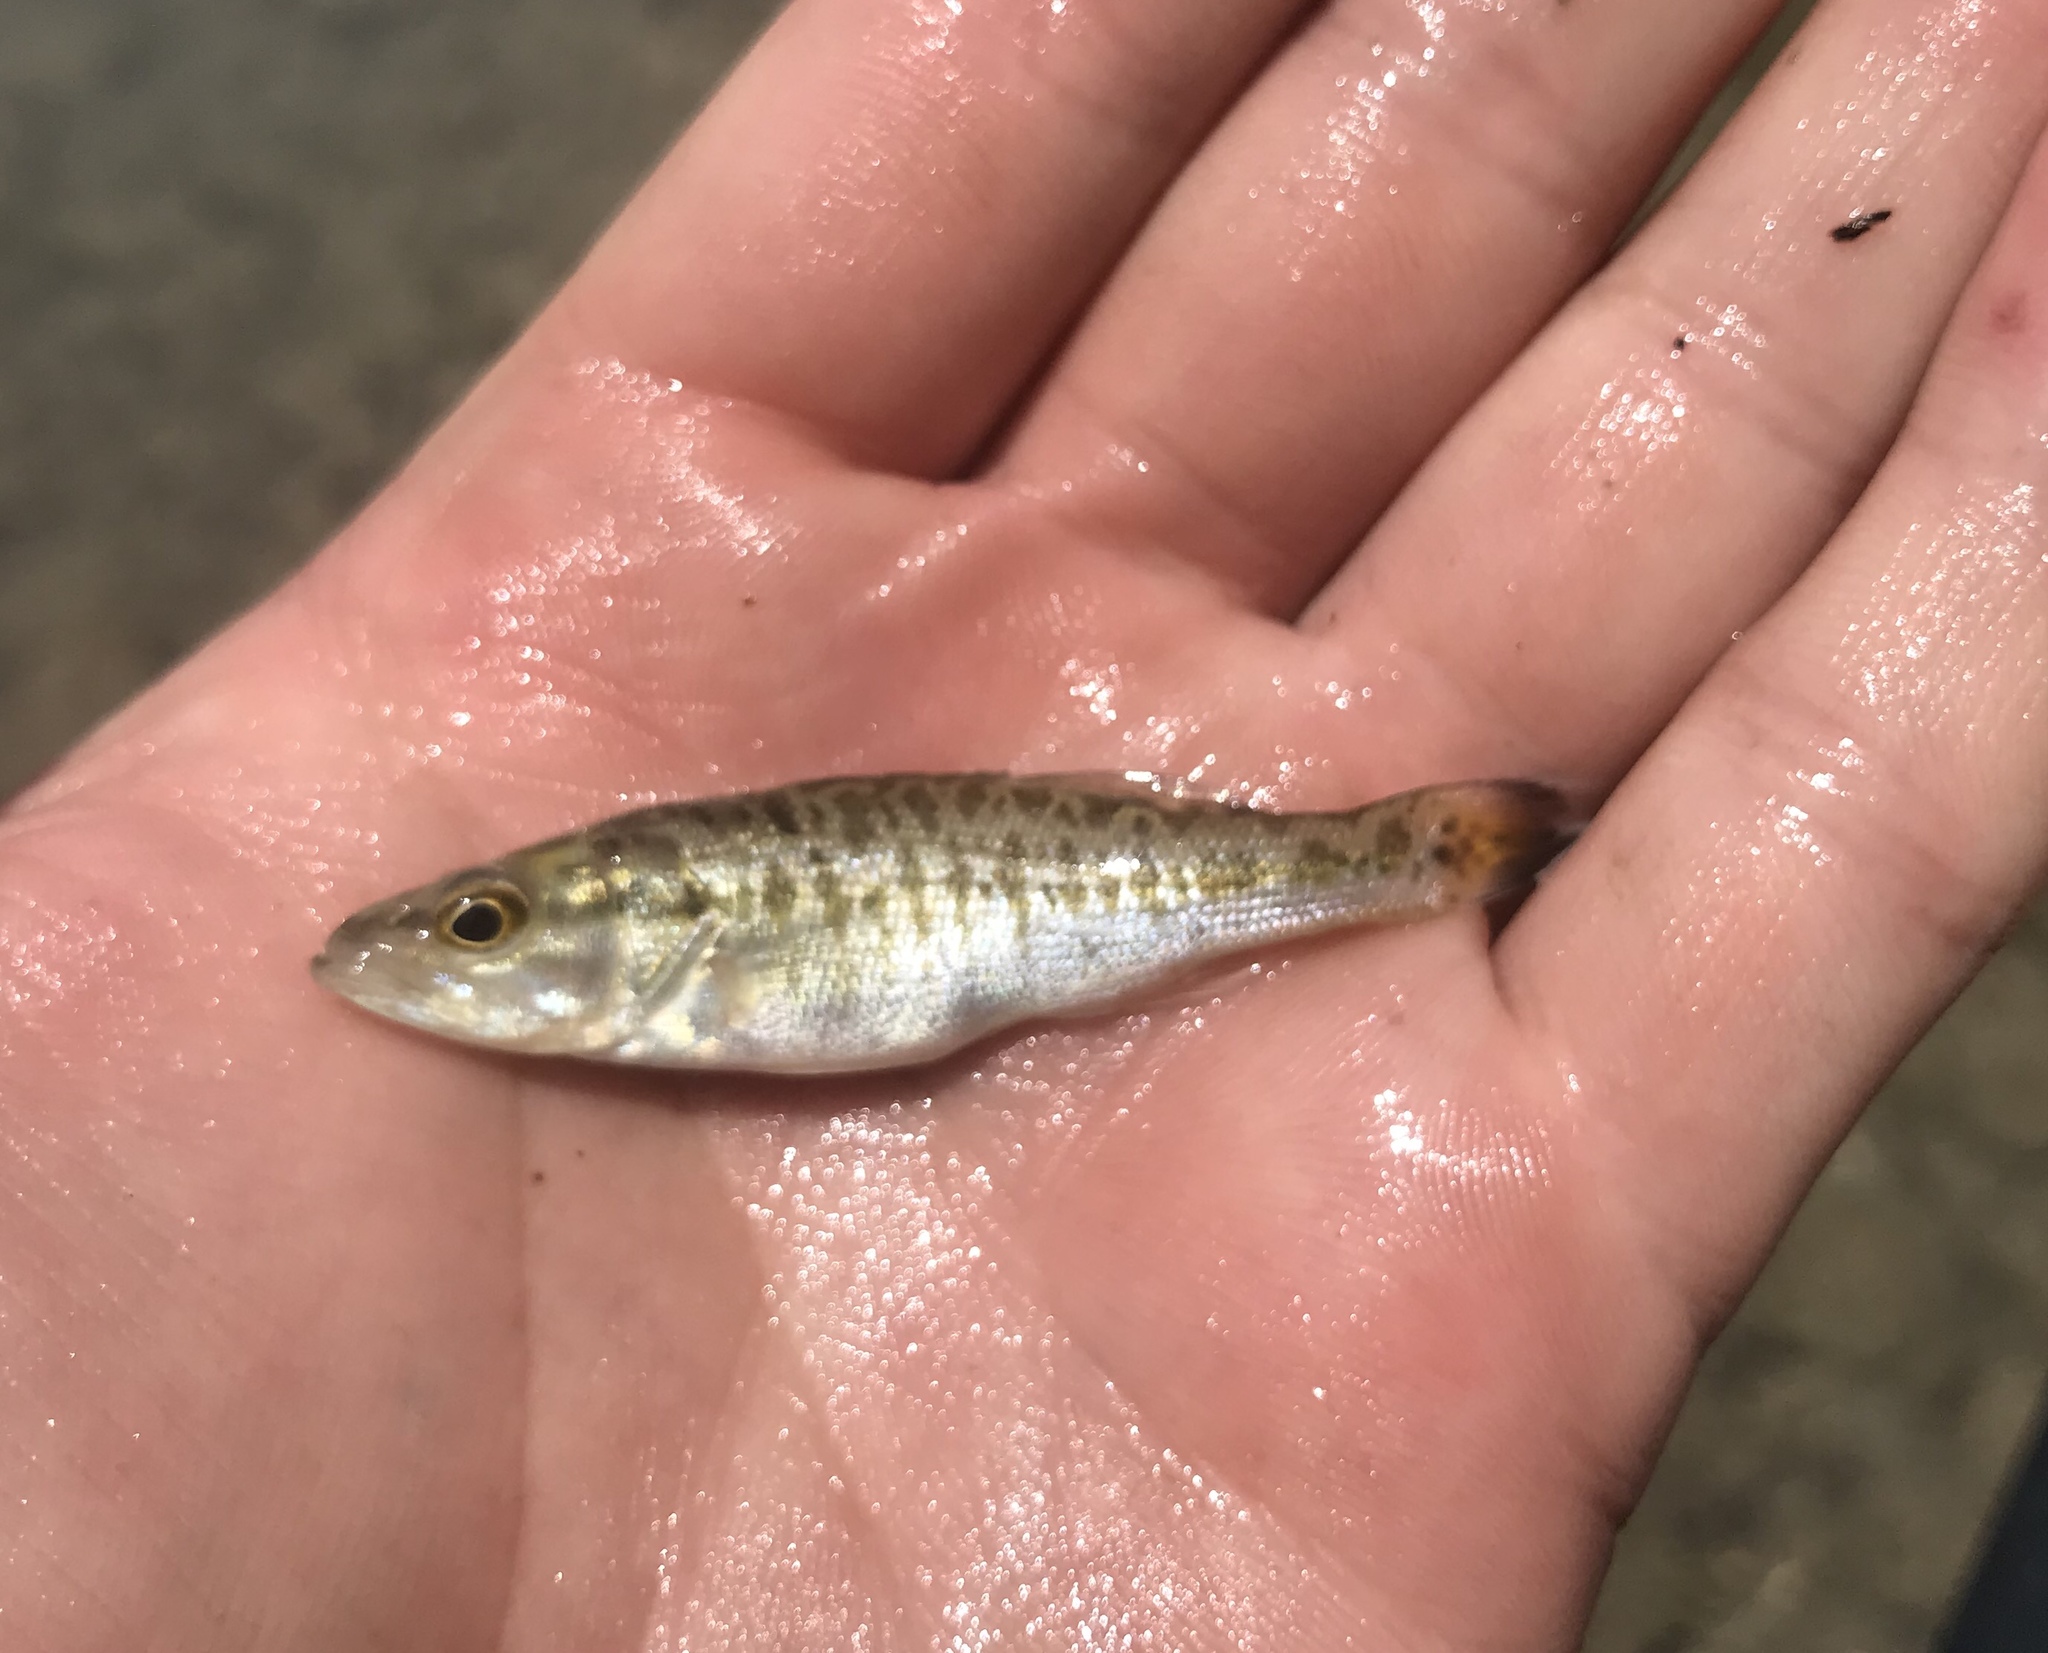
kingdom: Animalia
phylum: Chordata
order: Perciformes
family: Centrarchidae
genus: Micropterus
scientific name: Micropterus treculii
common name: Guadalupe bass
